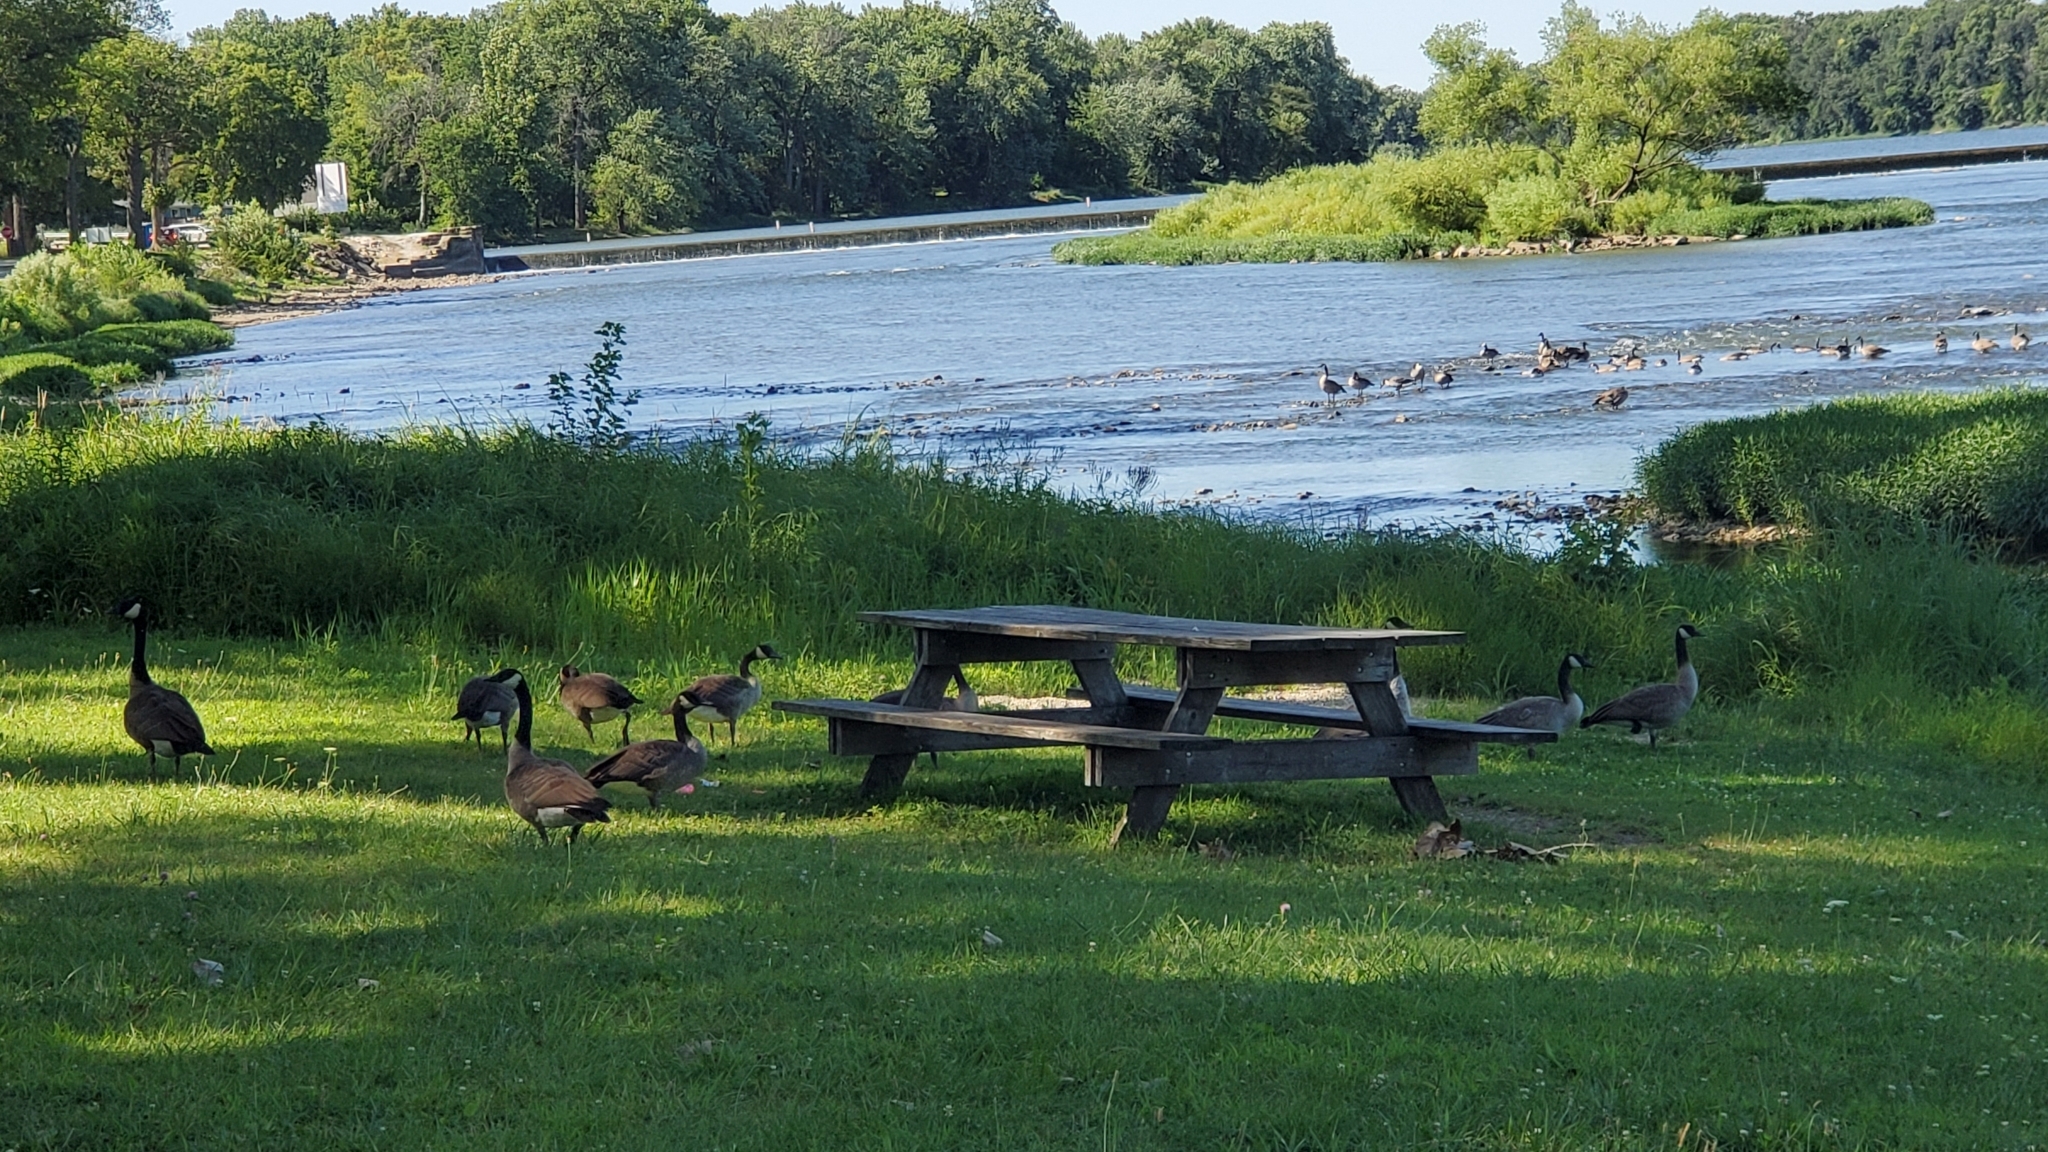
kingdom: Animalia
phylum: Chordata
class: Aves
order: Anseriformes
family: Anatidae
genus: Branta
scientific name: Branta canadensis
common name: Canada goose
